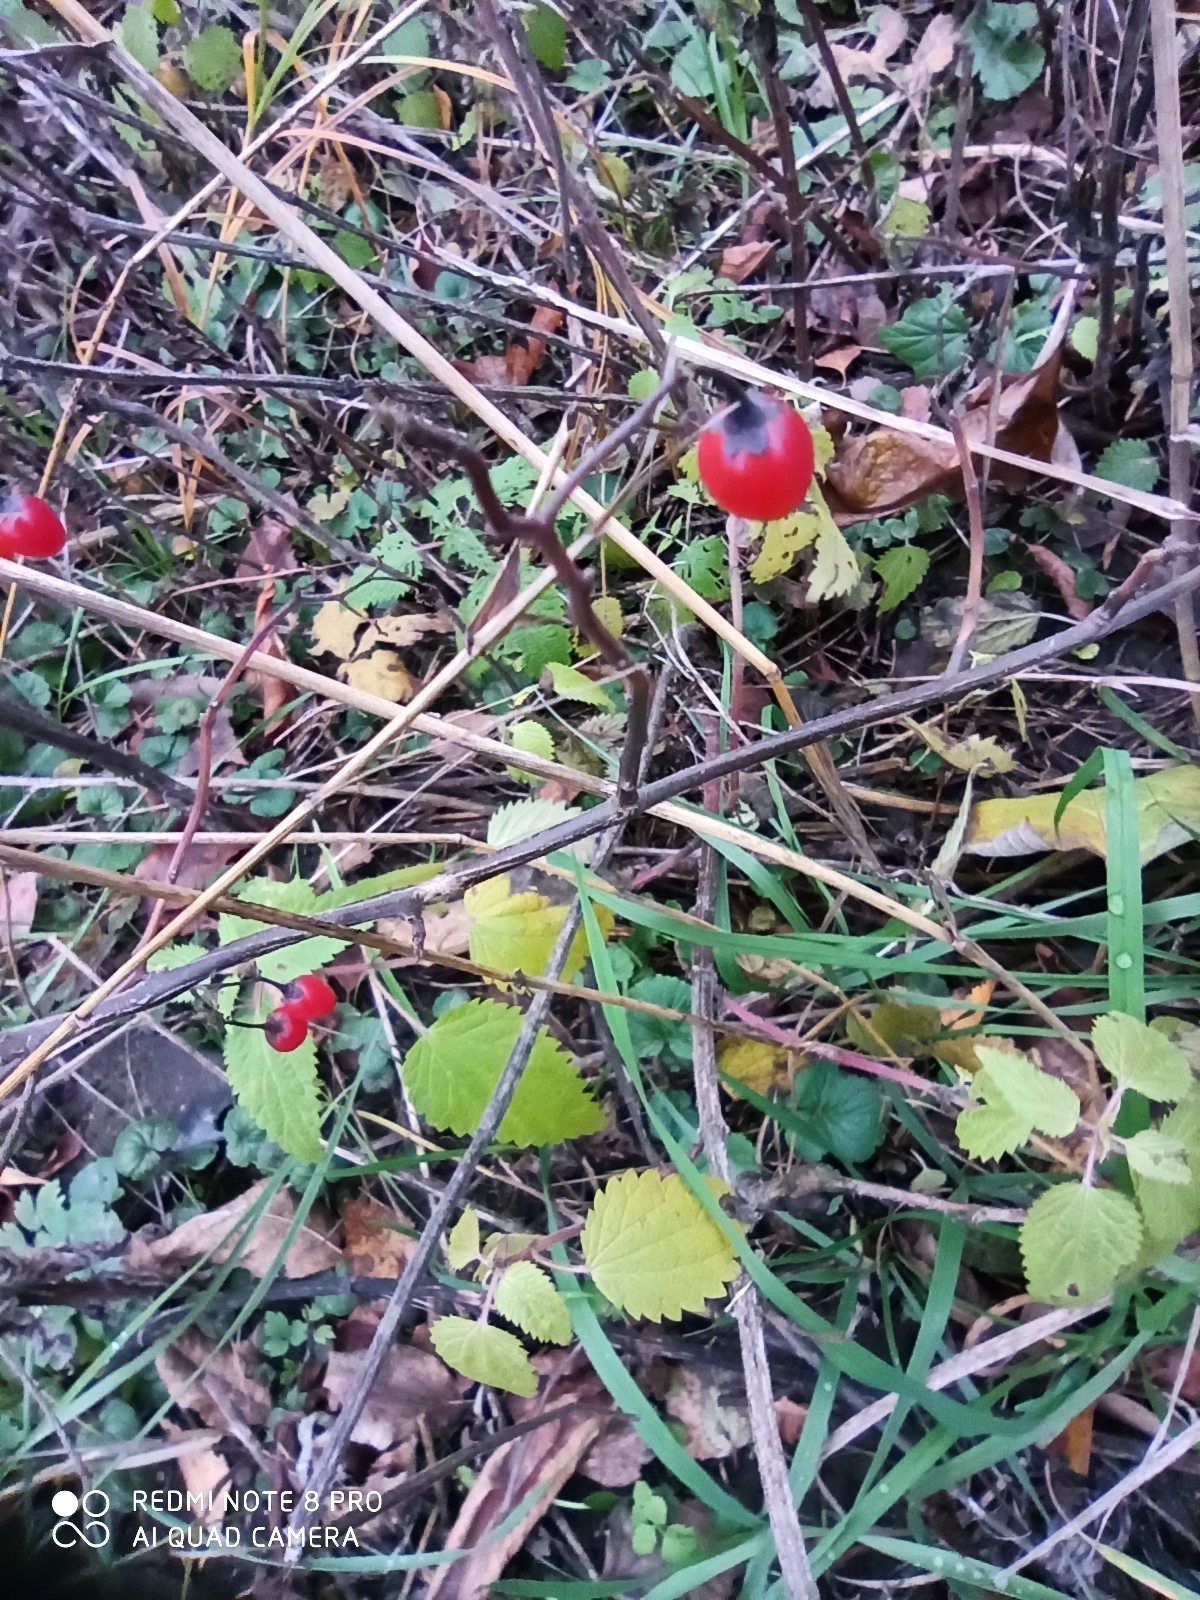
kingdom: Plantae
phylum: Tracheophyta
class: Magnoliopsida
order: Solanales
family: Solanaceae
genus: Solanum
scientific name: Solanum dulcamara
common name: Climbing nightshade
